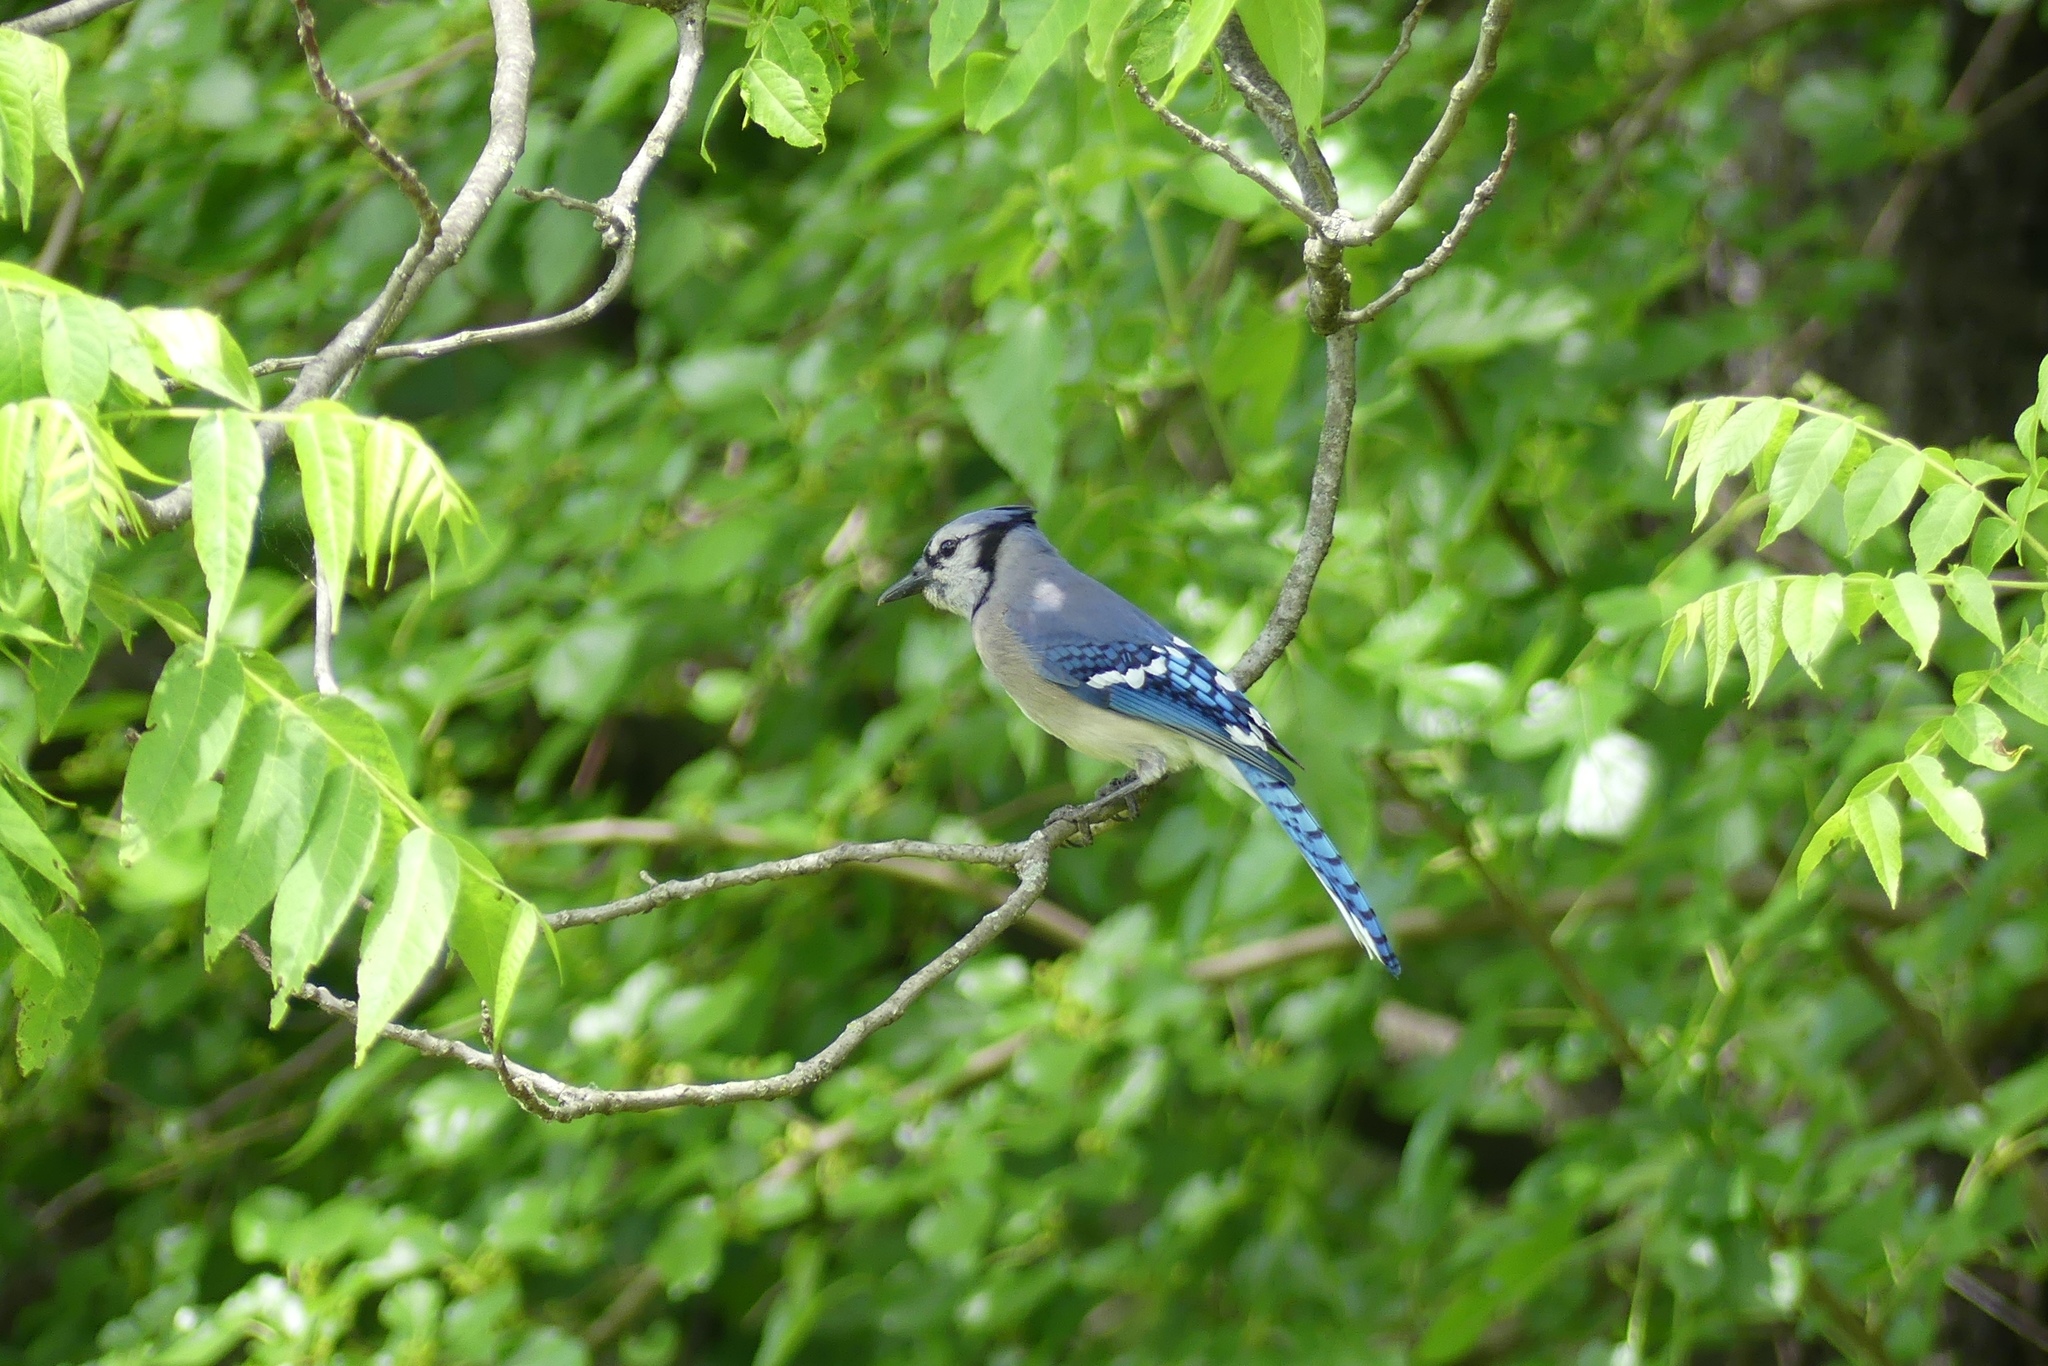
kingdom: Animalia
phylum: Chordata
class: Aves
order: Passeriformes
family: Corvidae
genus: Cyanocitta
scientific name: Cyanocitta cristata
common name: Blue jay
